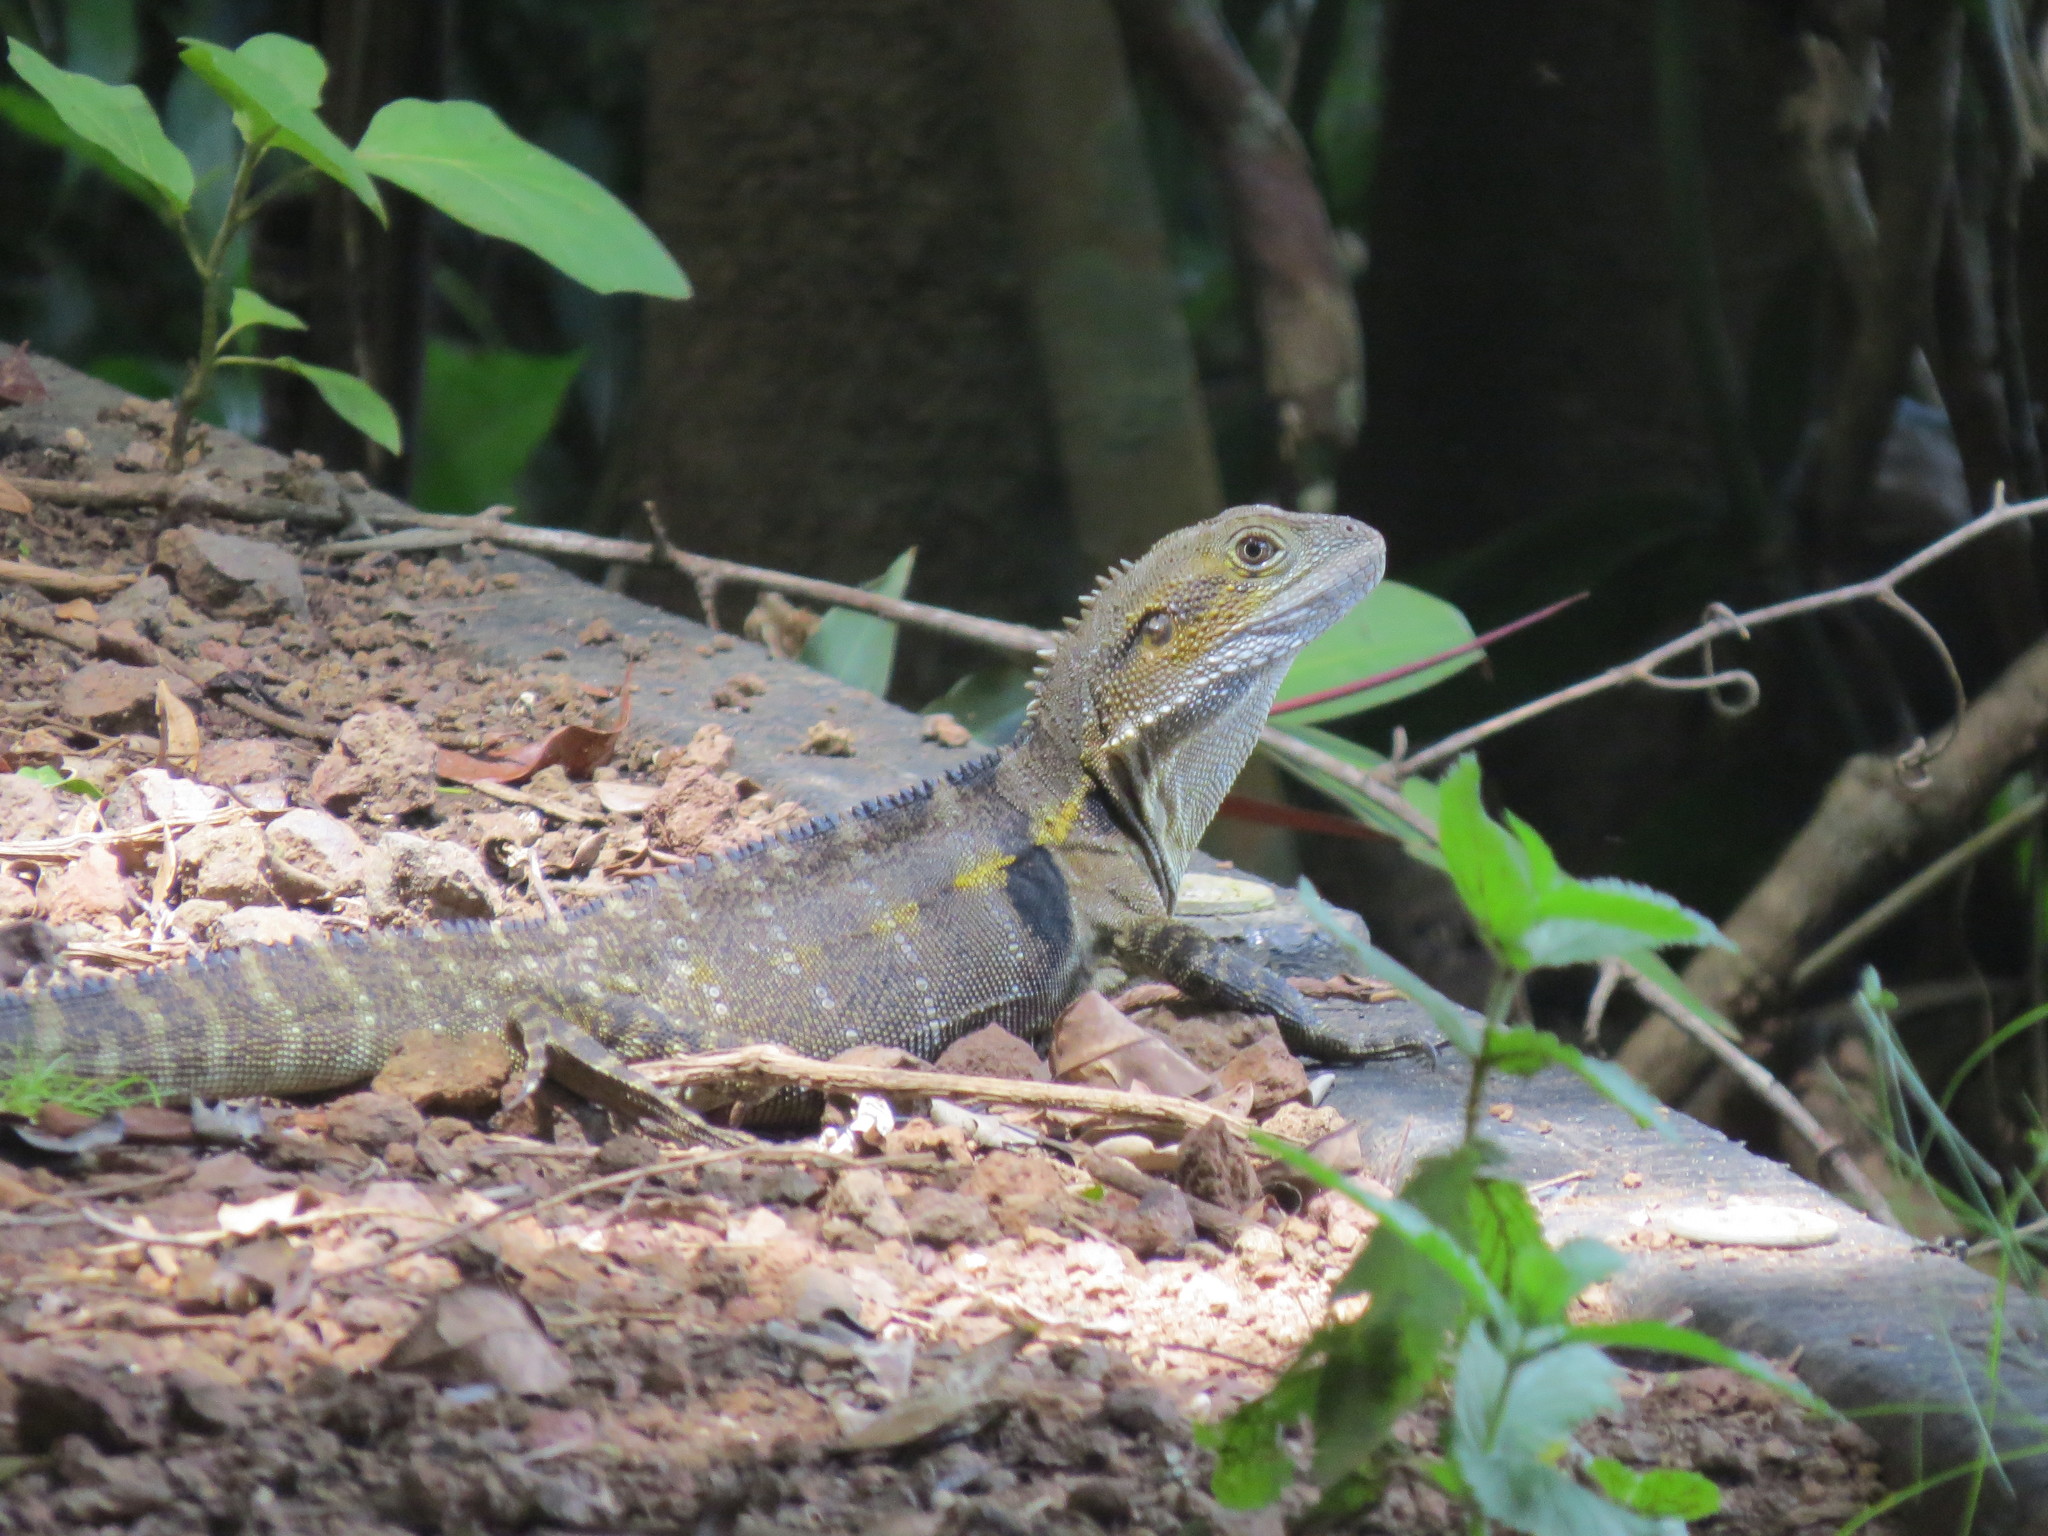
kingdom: Animalia
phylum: Chordata
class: Squamata
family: Agamidae
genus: Intellagama
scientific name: Intellagama lesueurii
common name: Eastern water dragon
